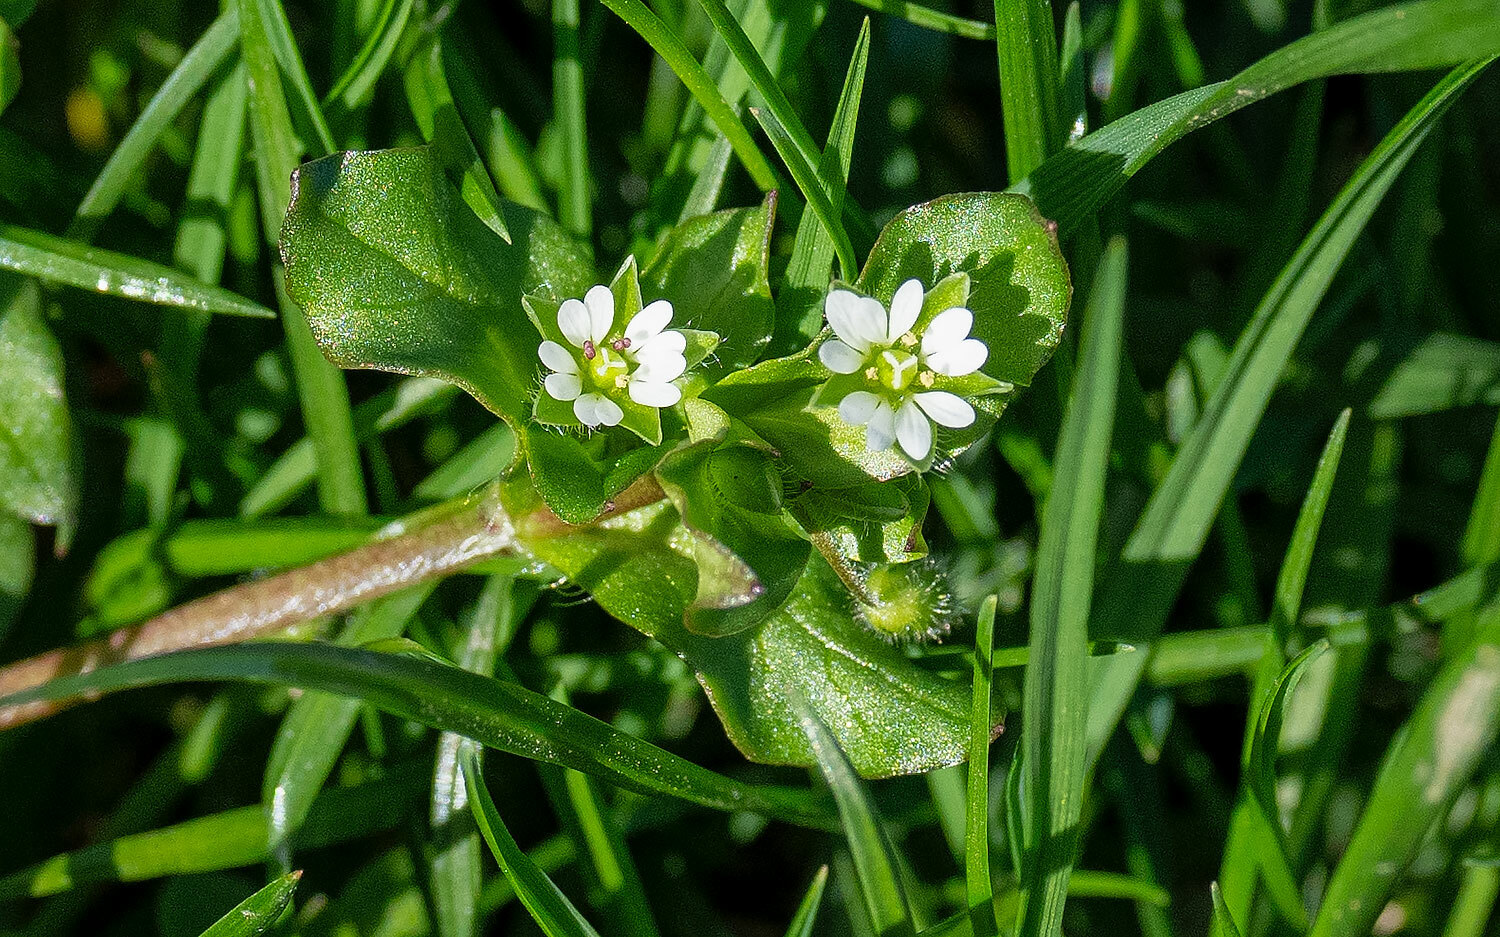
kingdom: Plantae
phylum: Tracheophyta
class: Magnoliopsida
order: Caryophyllales
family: Caryophyllaceae
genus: Stellaria
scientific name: Stellaria media
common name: Common chickweed
